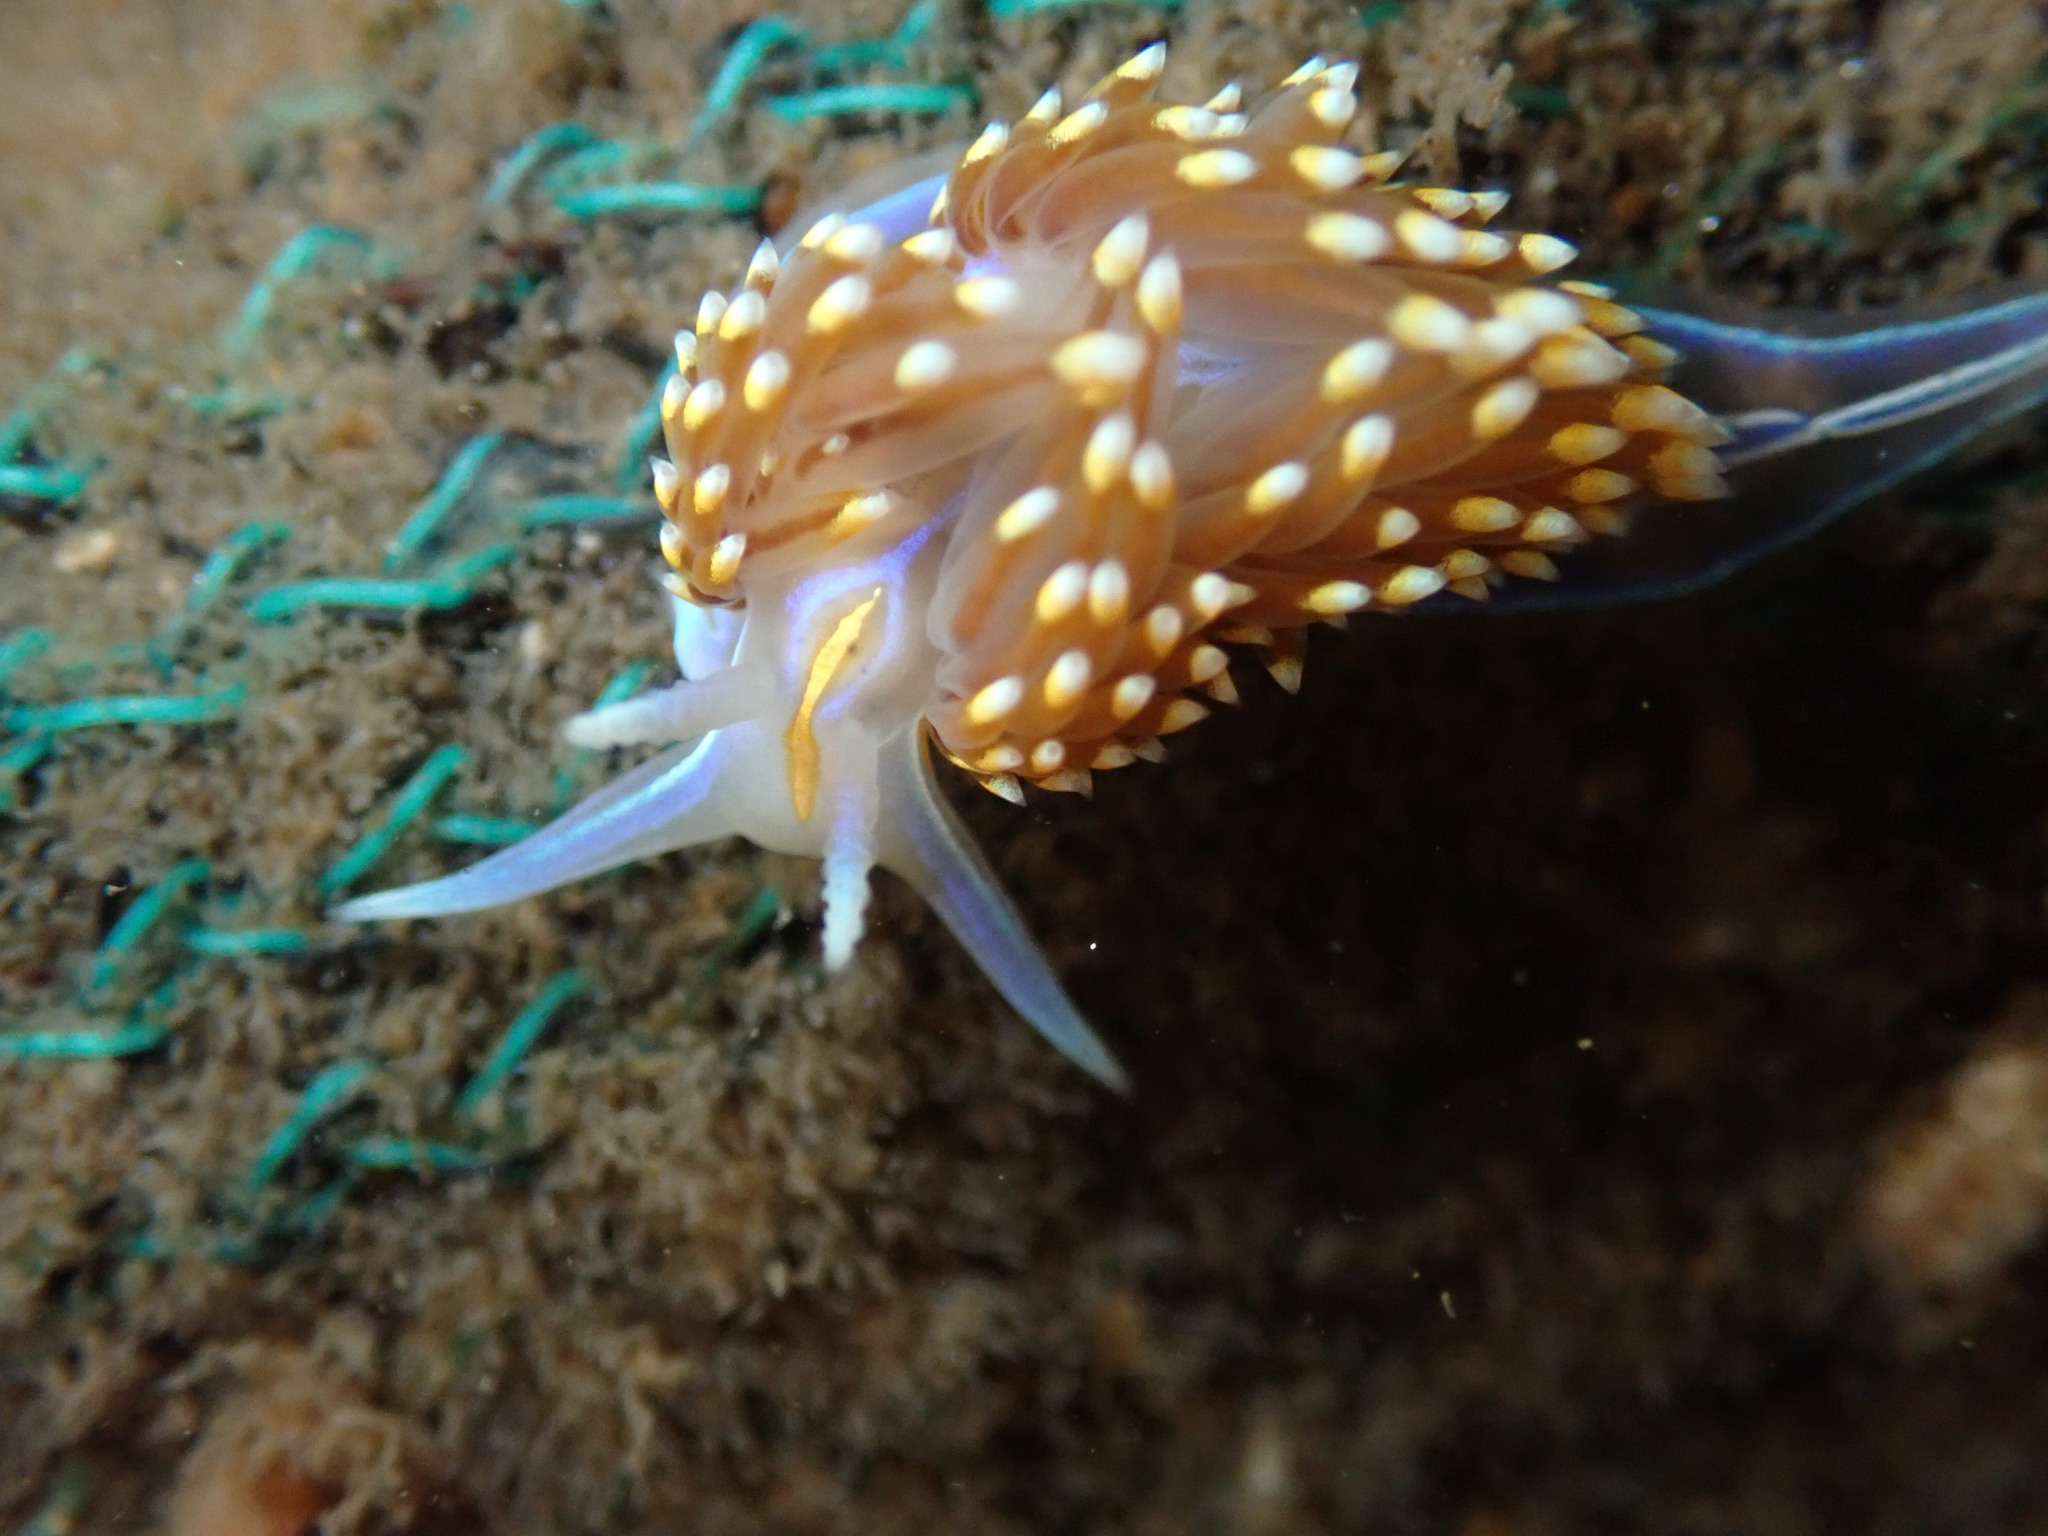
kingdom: Animalia
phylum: Mollusca
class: Gastropoda
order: Nudibranchia
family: Myrrhinidae
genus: Hermissenda
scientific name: Hermissenda opalescens
